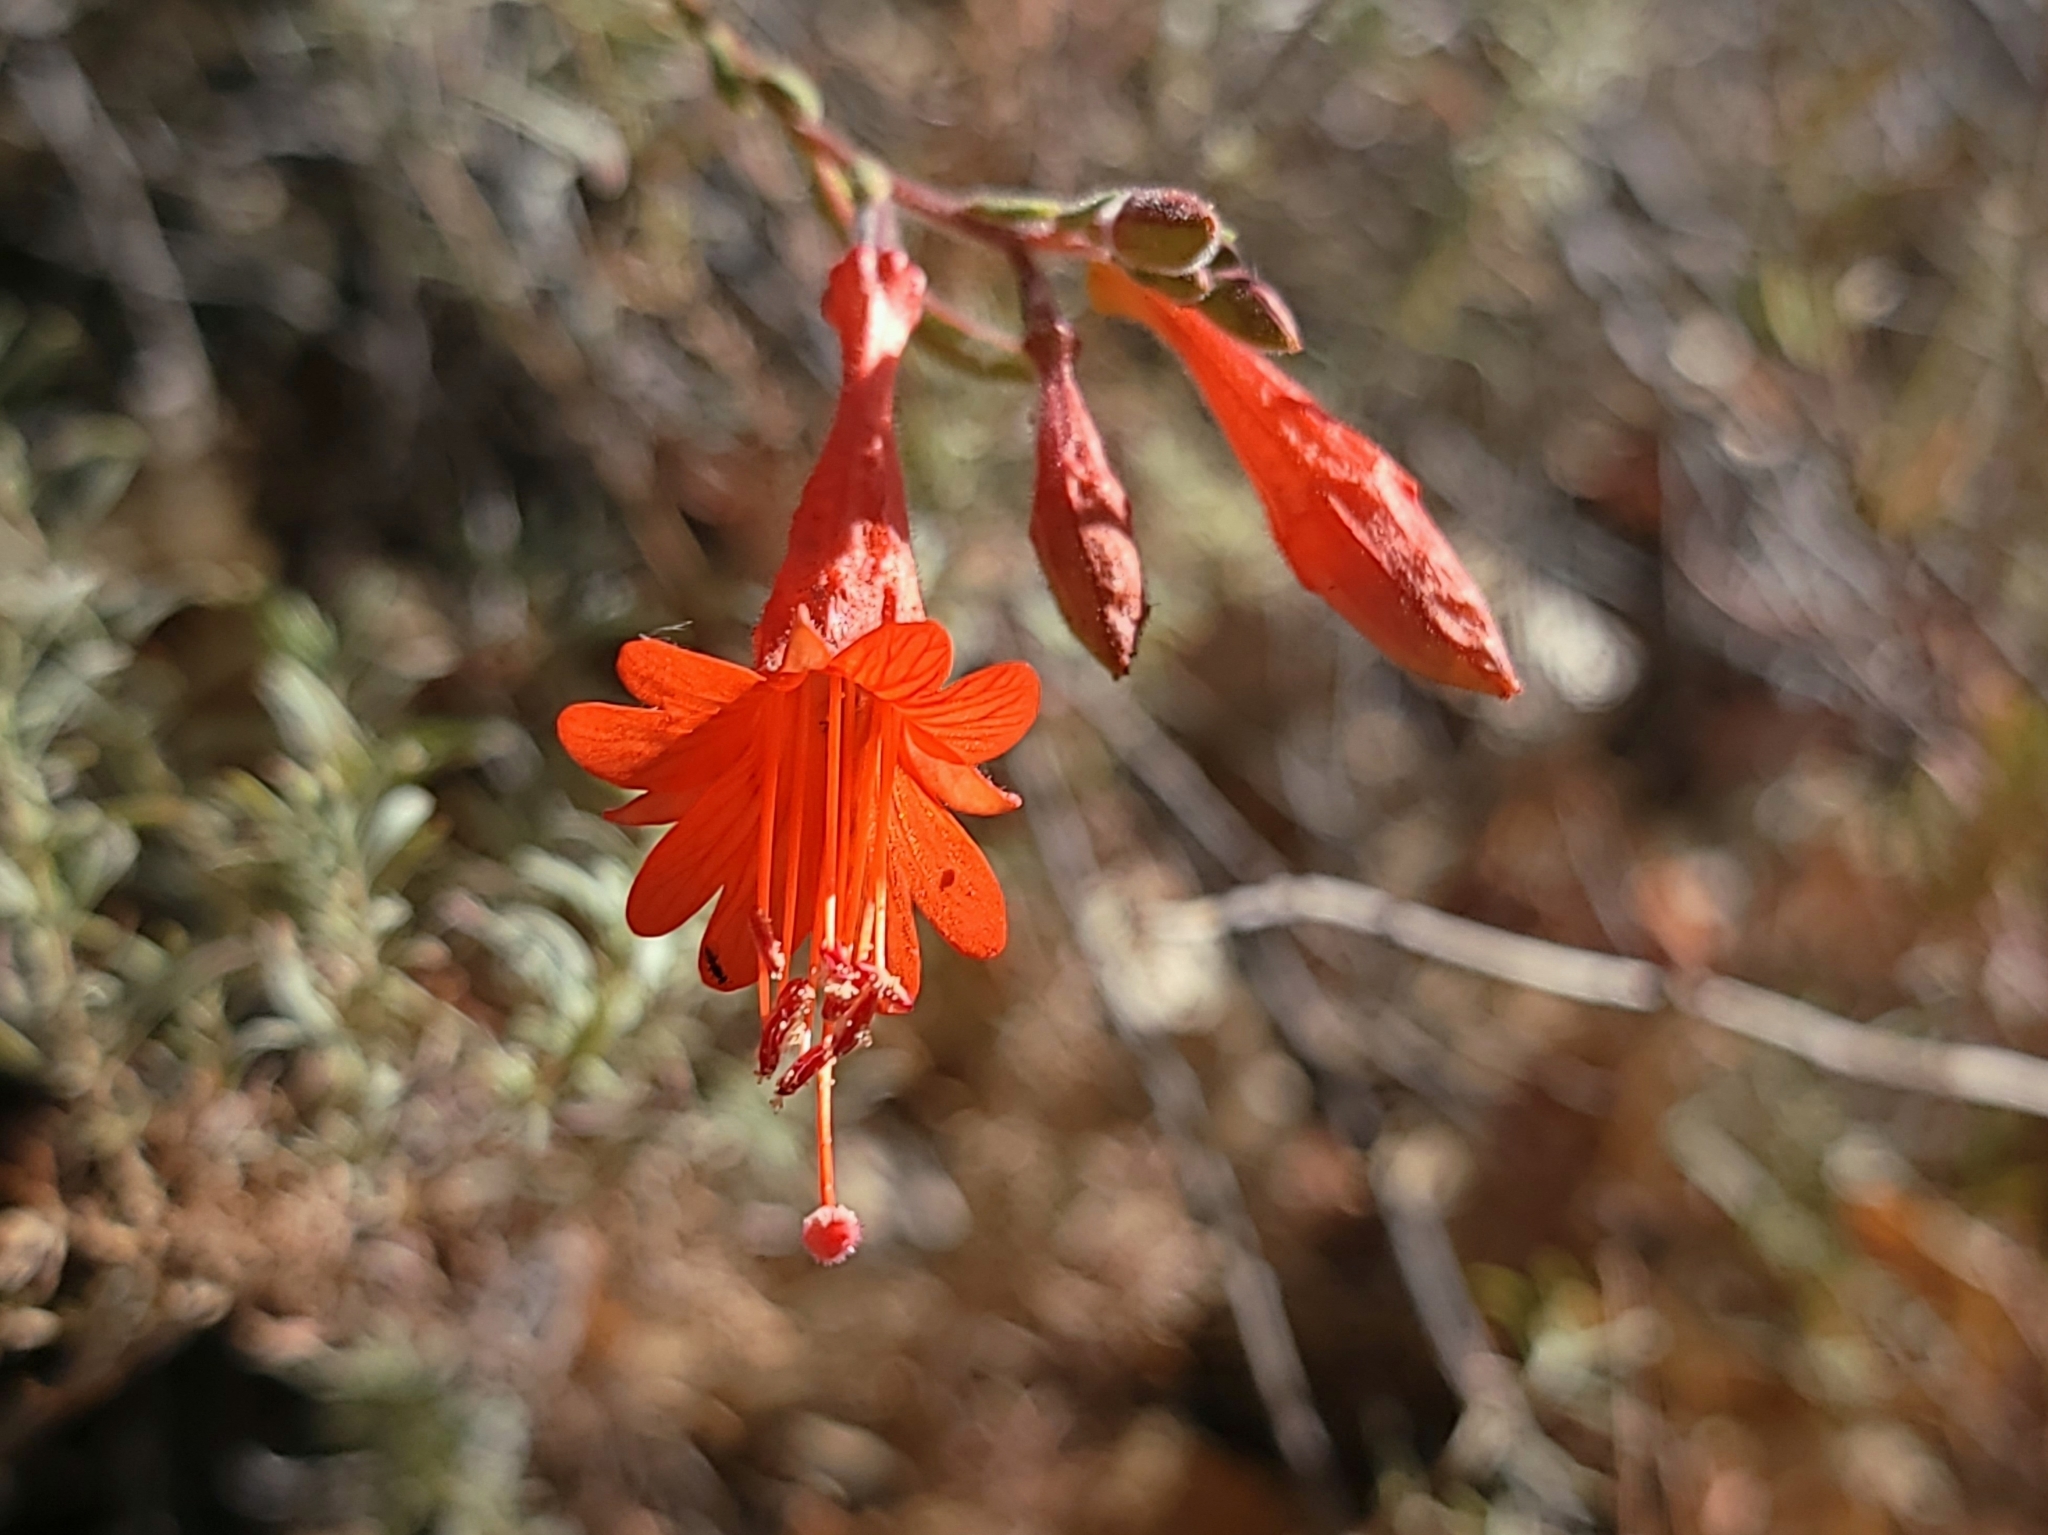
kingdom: Plantae
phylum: Tracheophyta
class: Magnoliopsida
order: Myrtales
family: Onagraceae
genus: Epilobium
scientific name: Epilobium canum
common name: California-fuchsia
